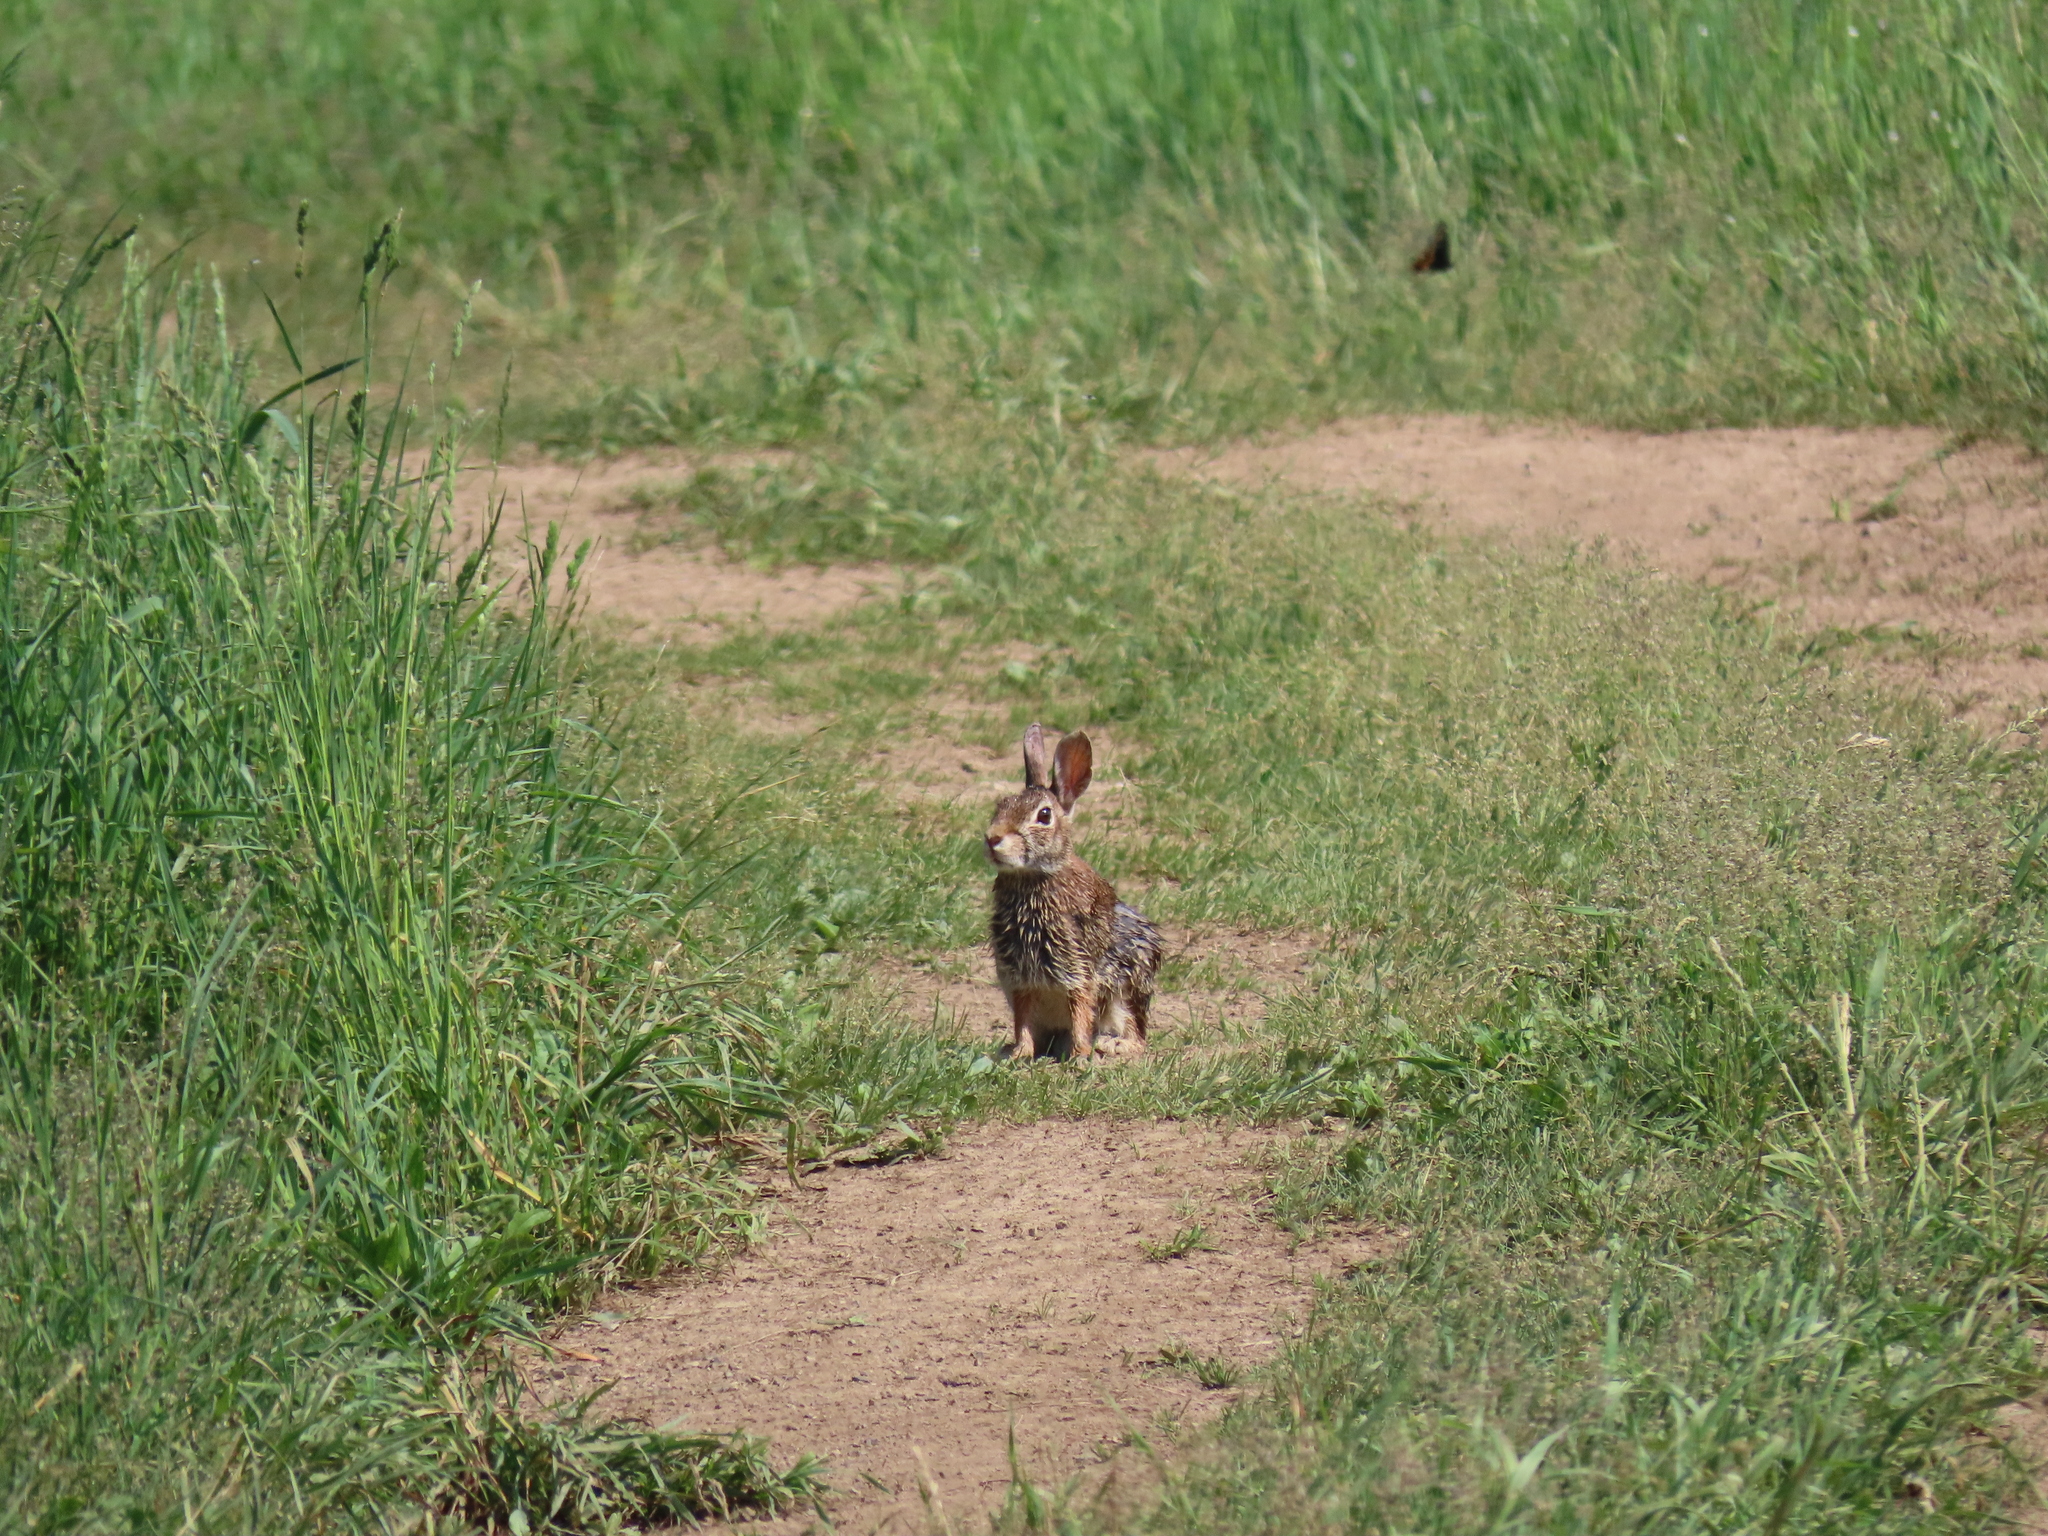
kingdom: Animalia
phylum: Chordata
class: Mammalia
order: Lagomorpha
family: Leporidae
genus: Sylvilagus
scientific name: Sylvilagus floridanus
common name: Eastern cottontail
